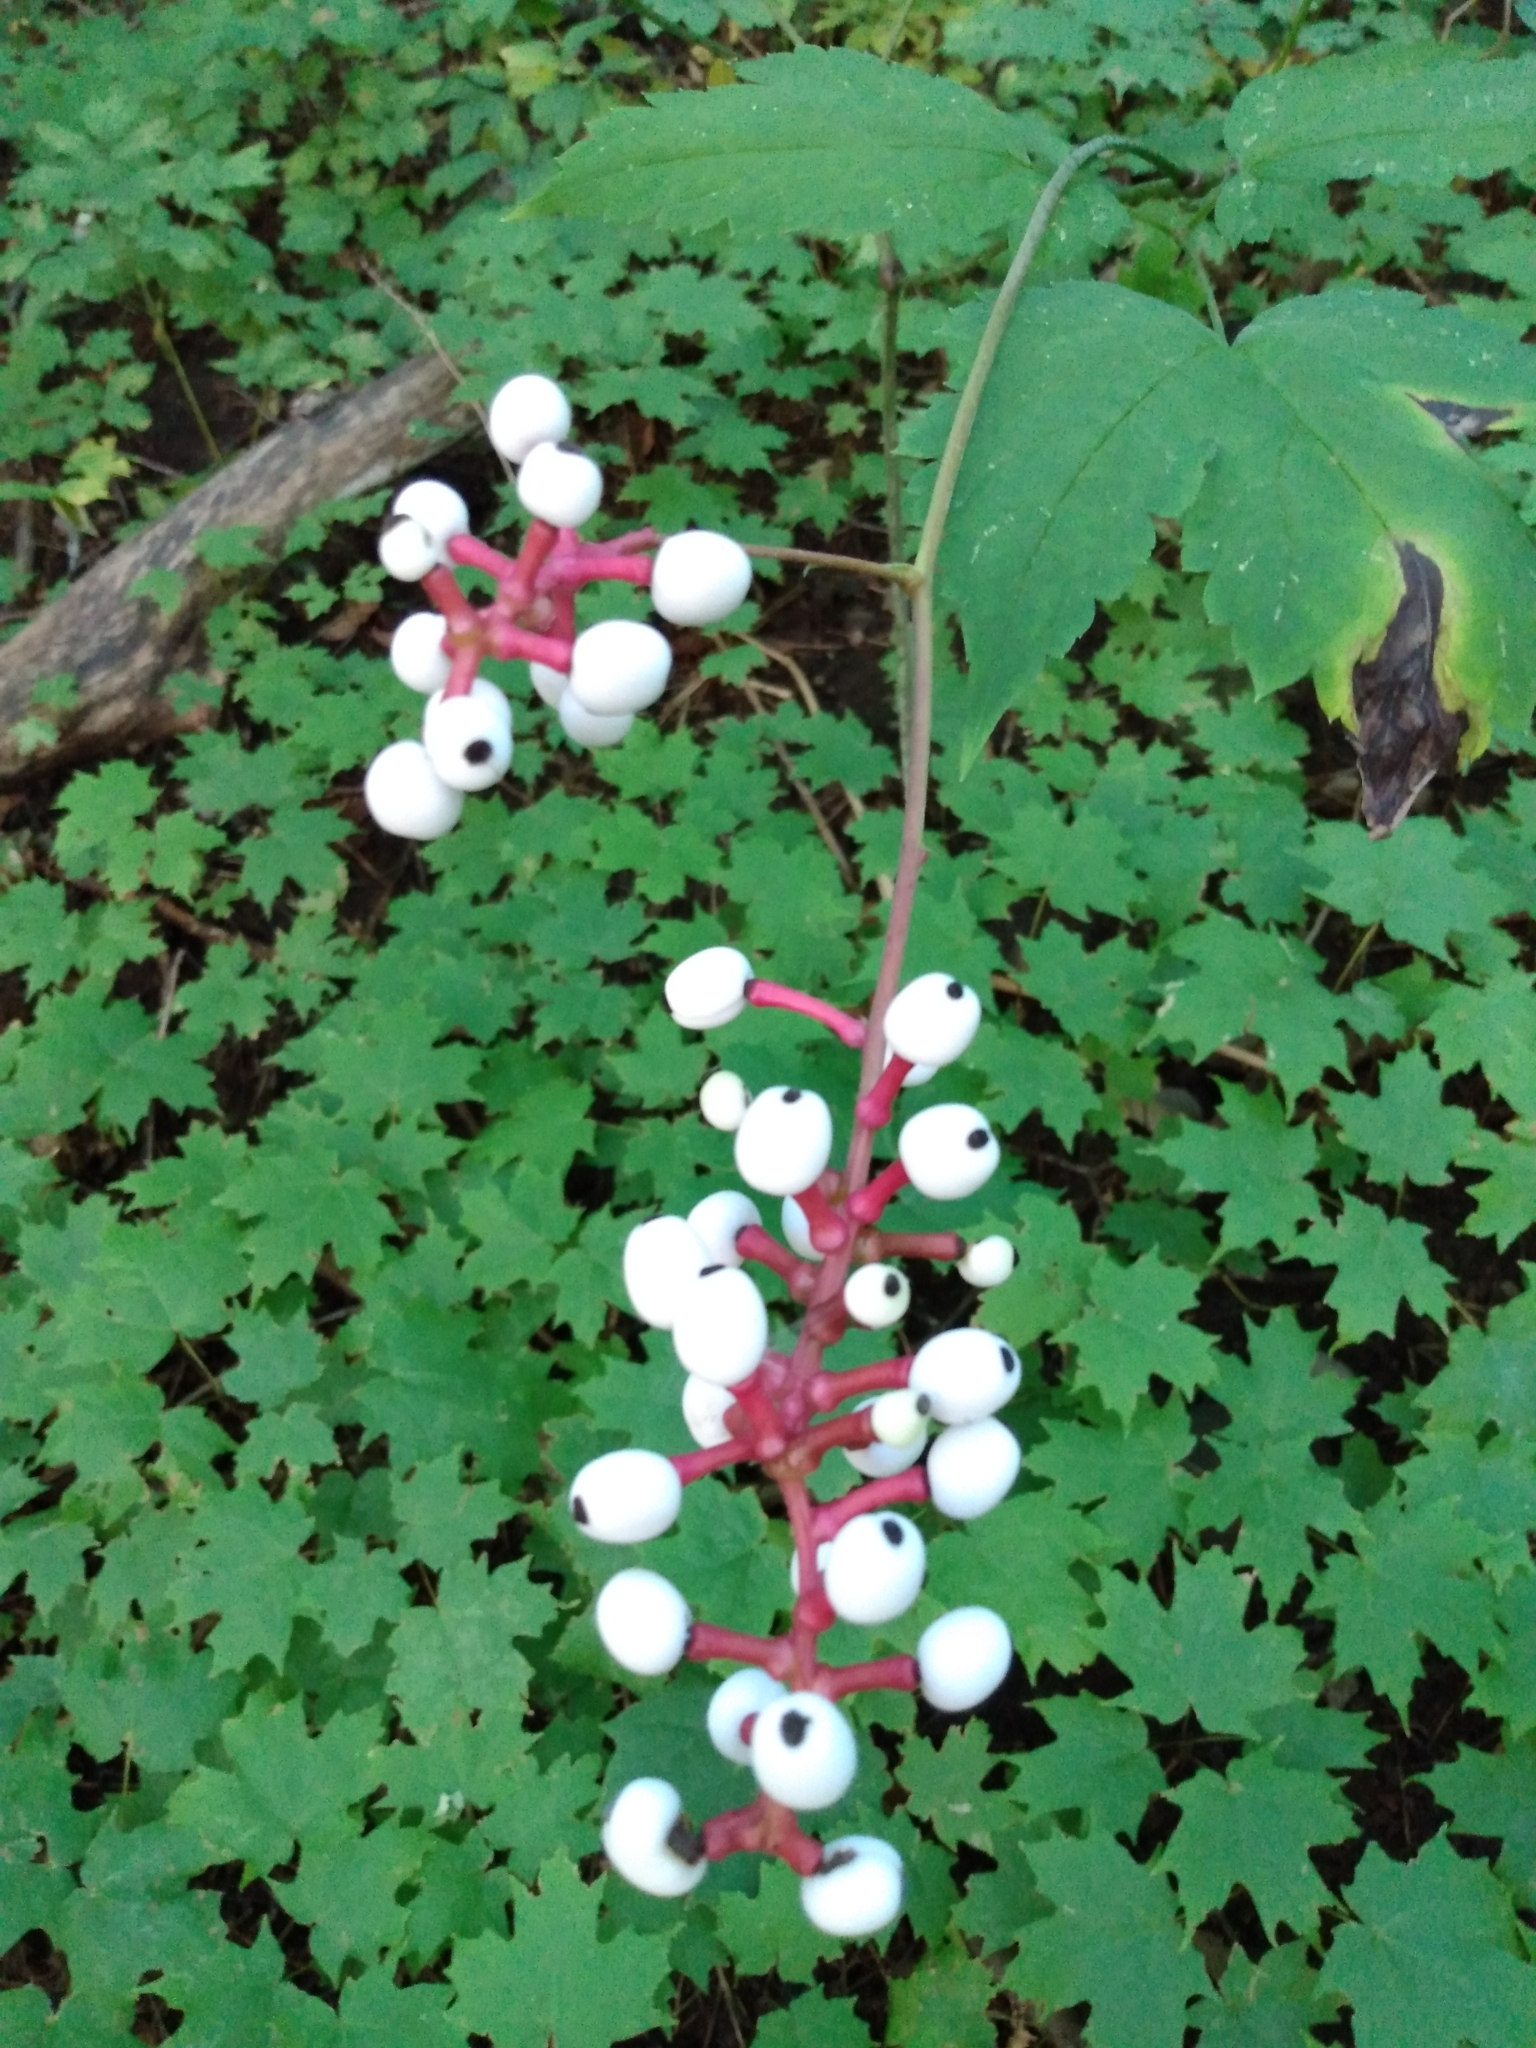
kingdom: Plantae
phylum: Tracheophyta
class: Magnoliopsida
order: Ranunculales
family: Ranunculaceae
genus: Actaea
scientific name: Actaea pachypoda
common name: Doll's-eyes
